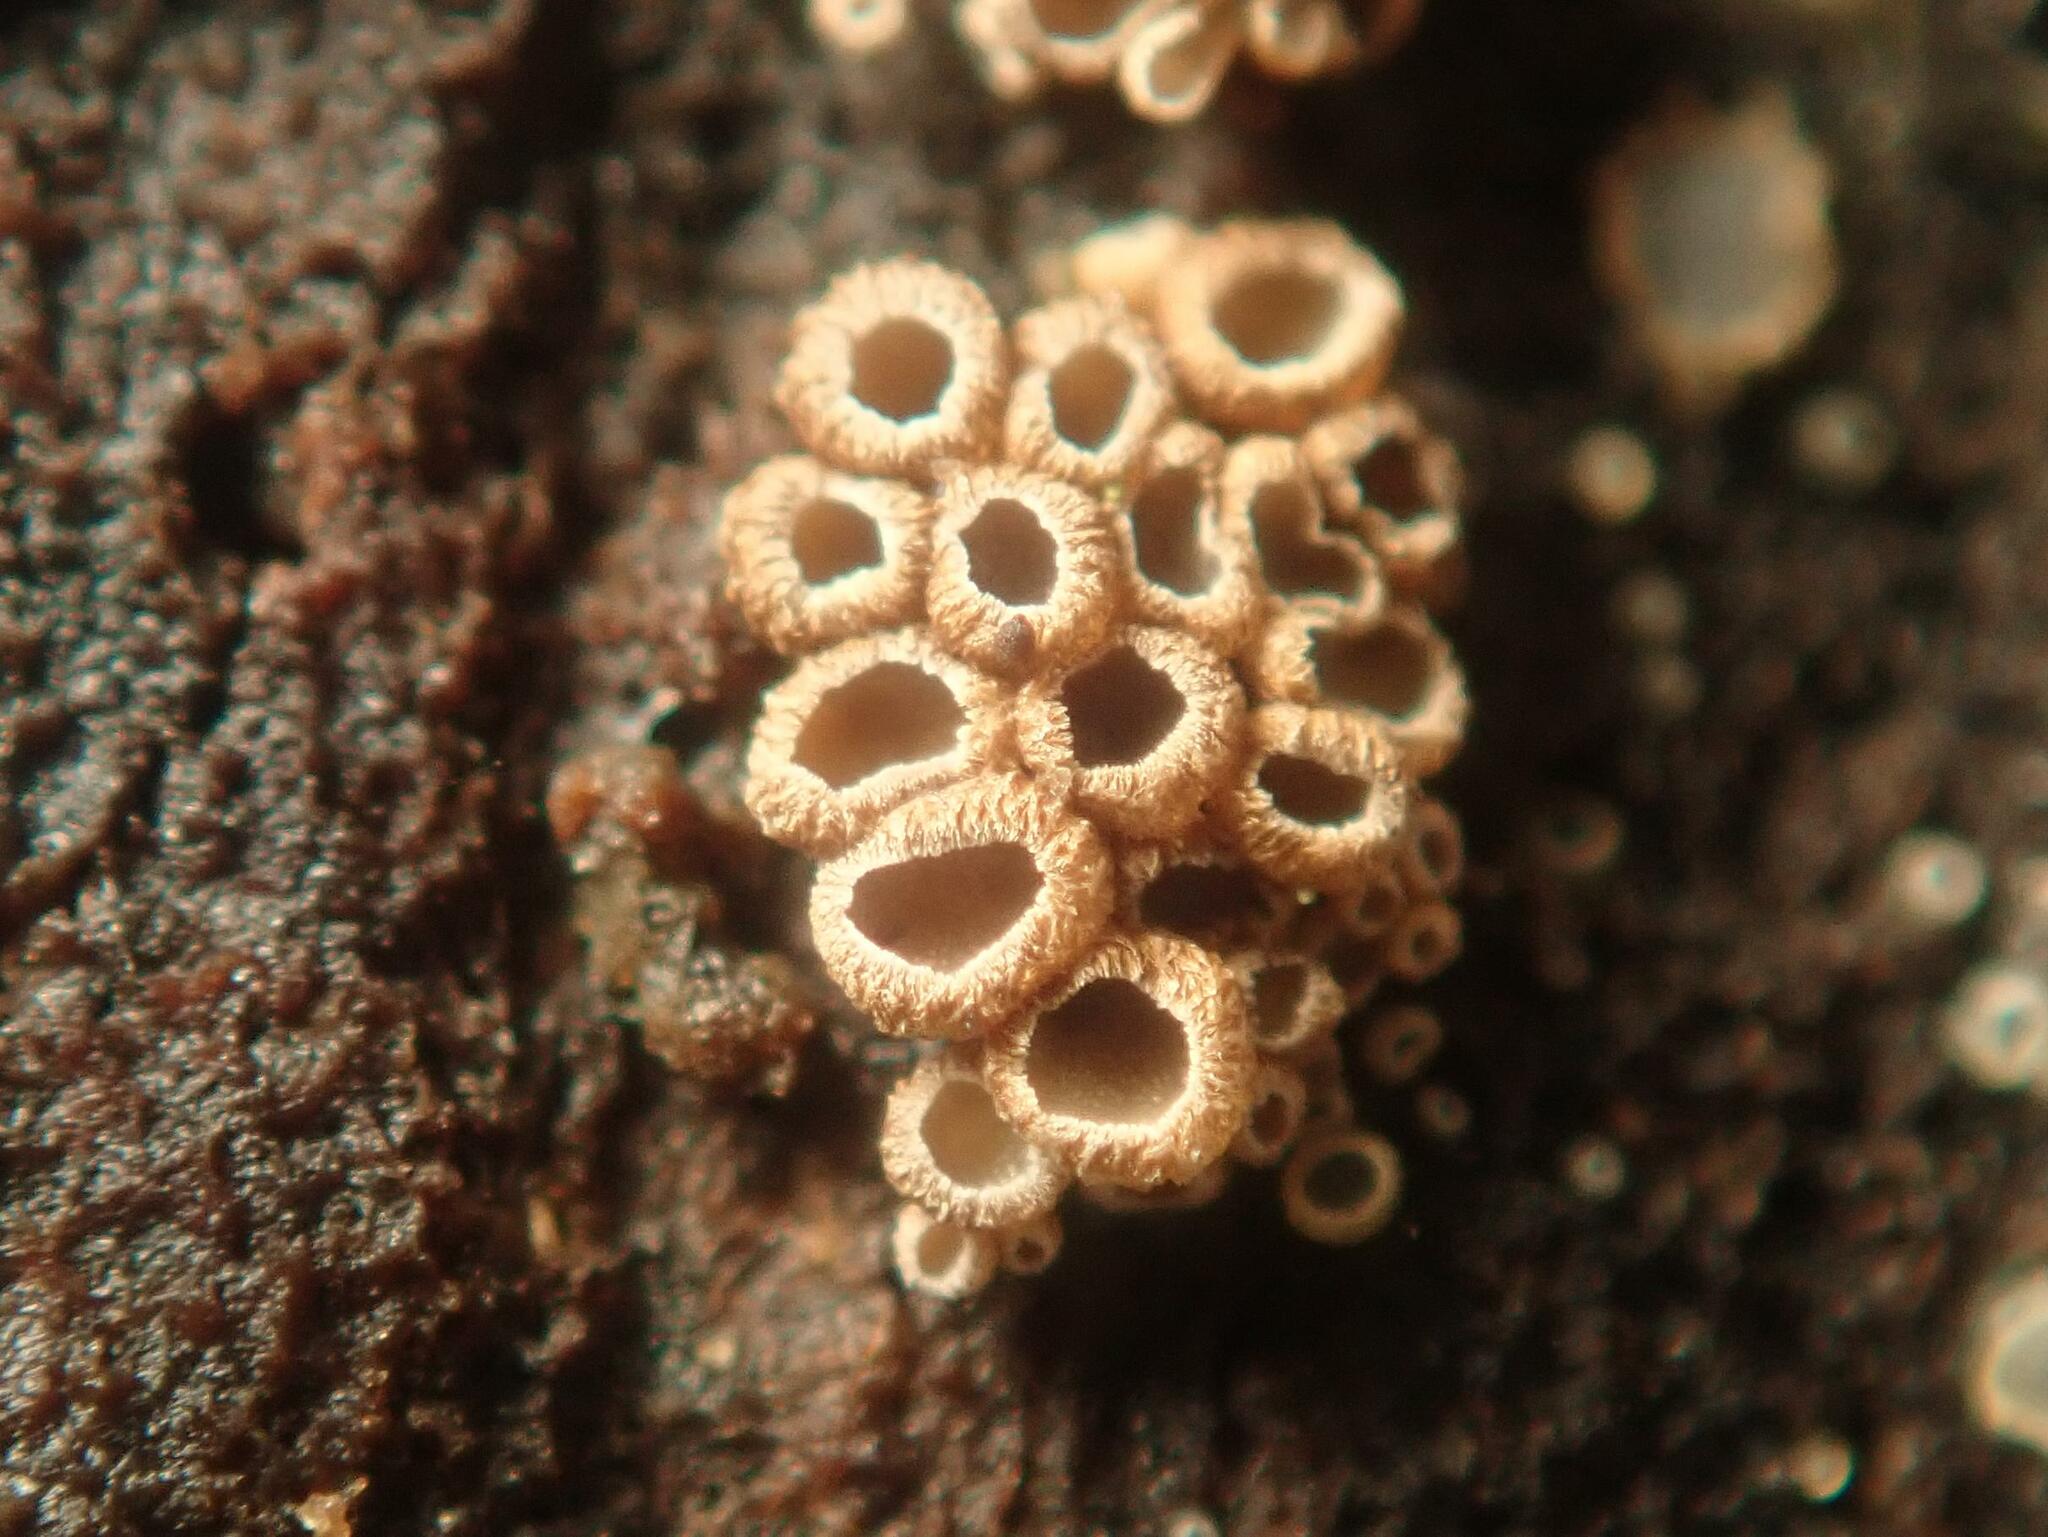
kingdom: Fungi
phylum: Basidiomycota
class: Agaricomycetes
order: Agaricales
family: Niaceae
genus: Merismodes
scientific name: Merismodes anomala
